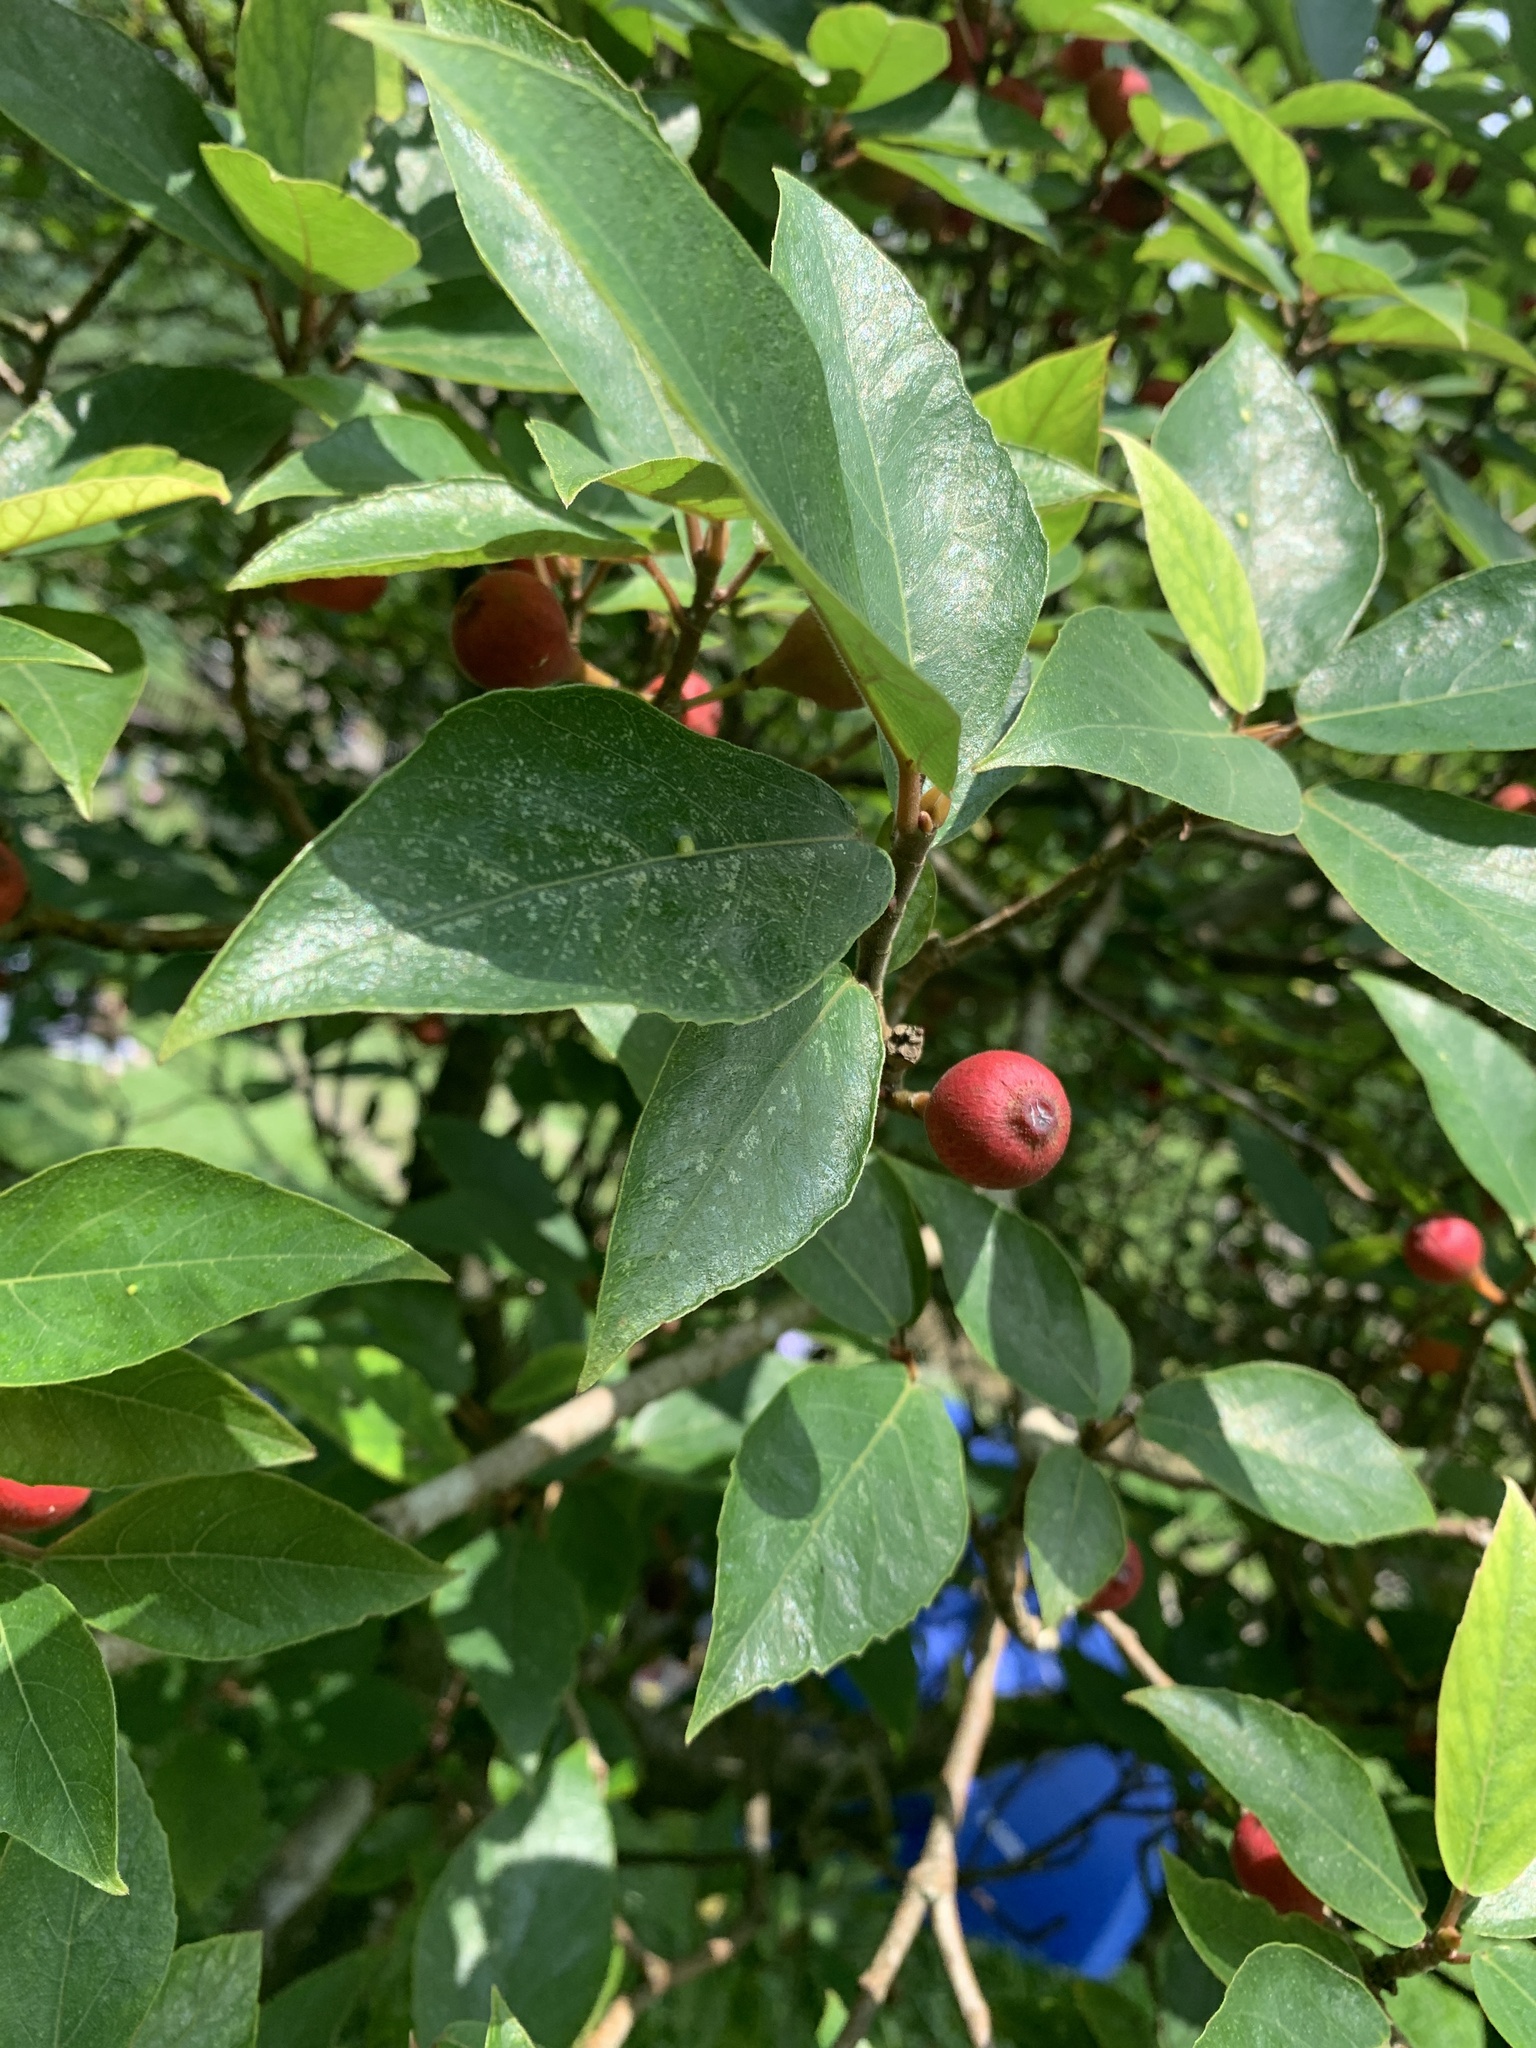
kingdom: Plantae
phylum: Tracheophyta
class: Magnoliopsida
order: Rosales
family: Moraceae
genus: Ficus
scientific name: Ficus erecta
